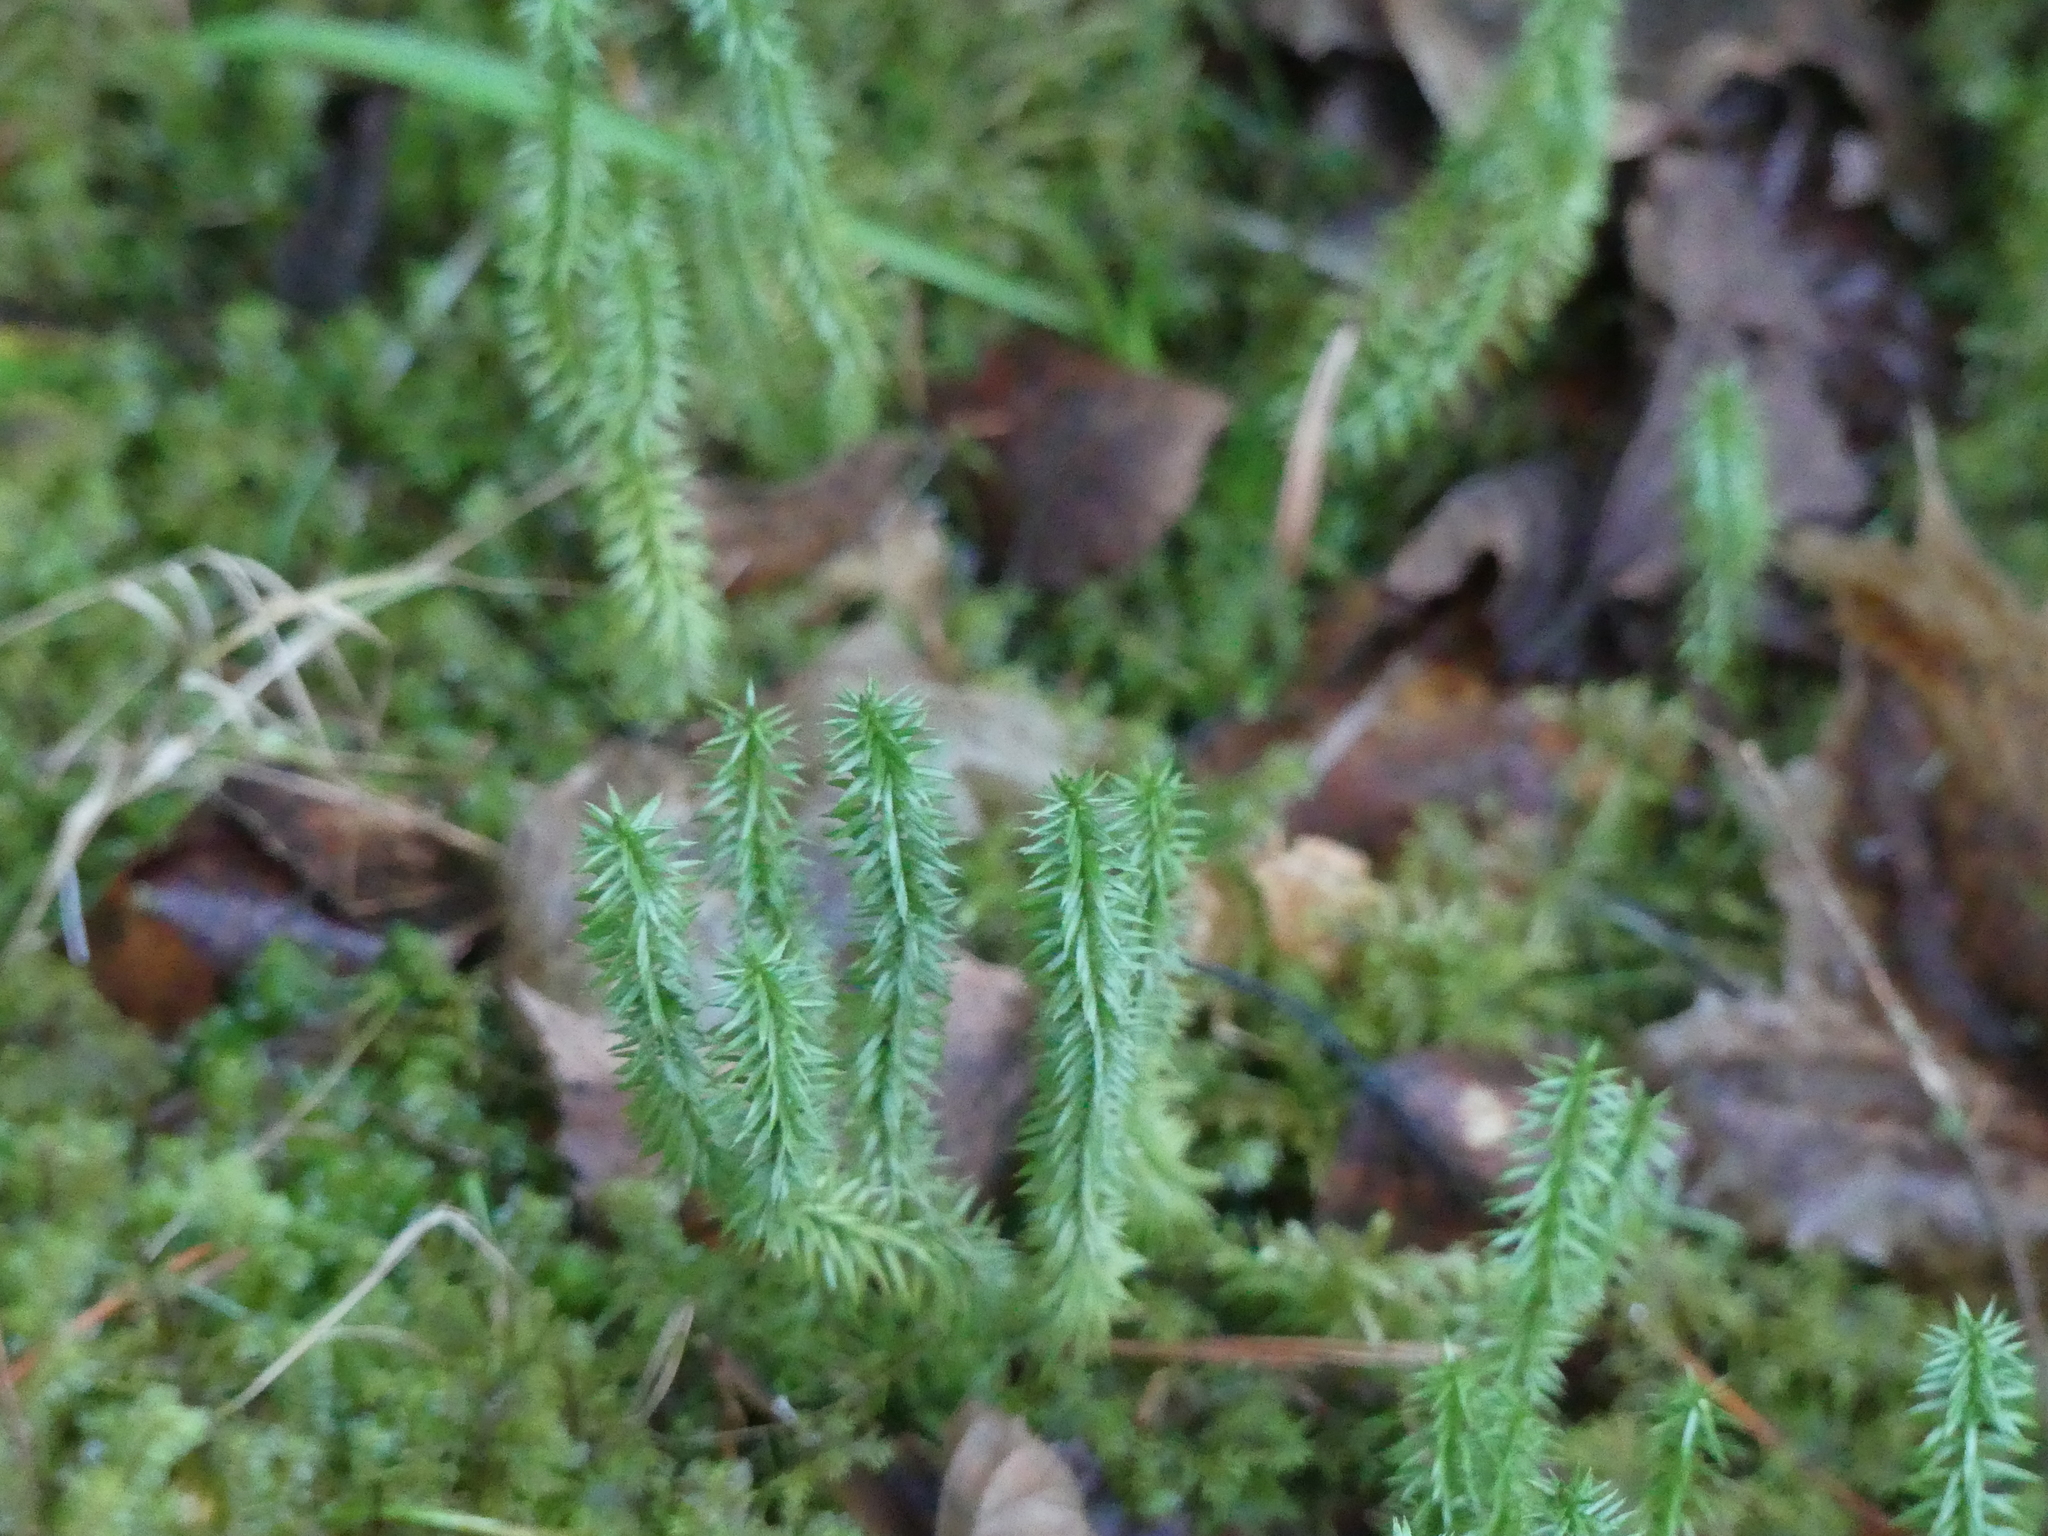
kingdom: Plantae
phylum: Tracheophyta
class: Lycopodiopsida
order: Lycopodiales
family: Lycopodiaceae
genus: Spinulum
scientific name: Spinulum annotinum
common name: Interrupted club-moss
